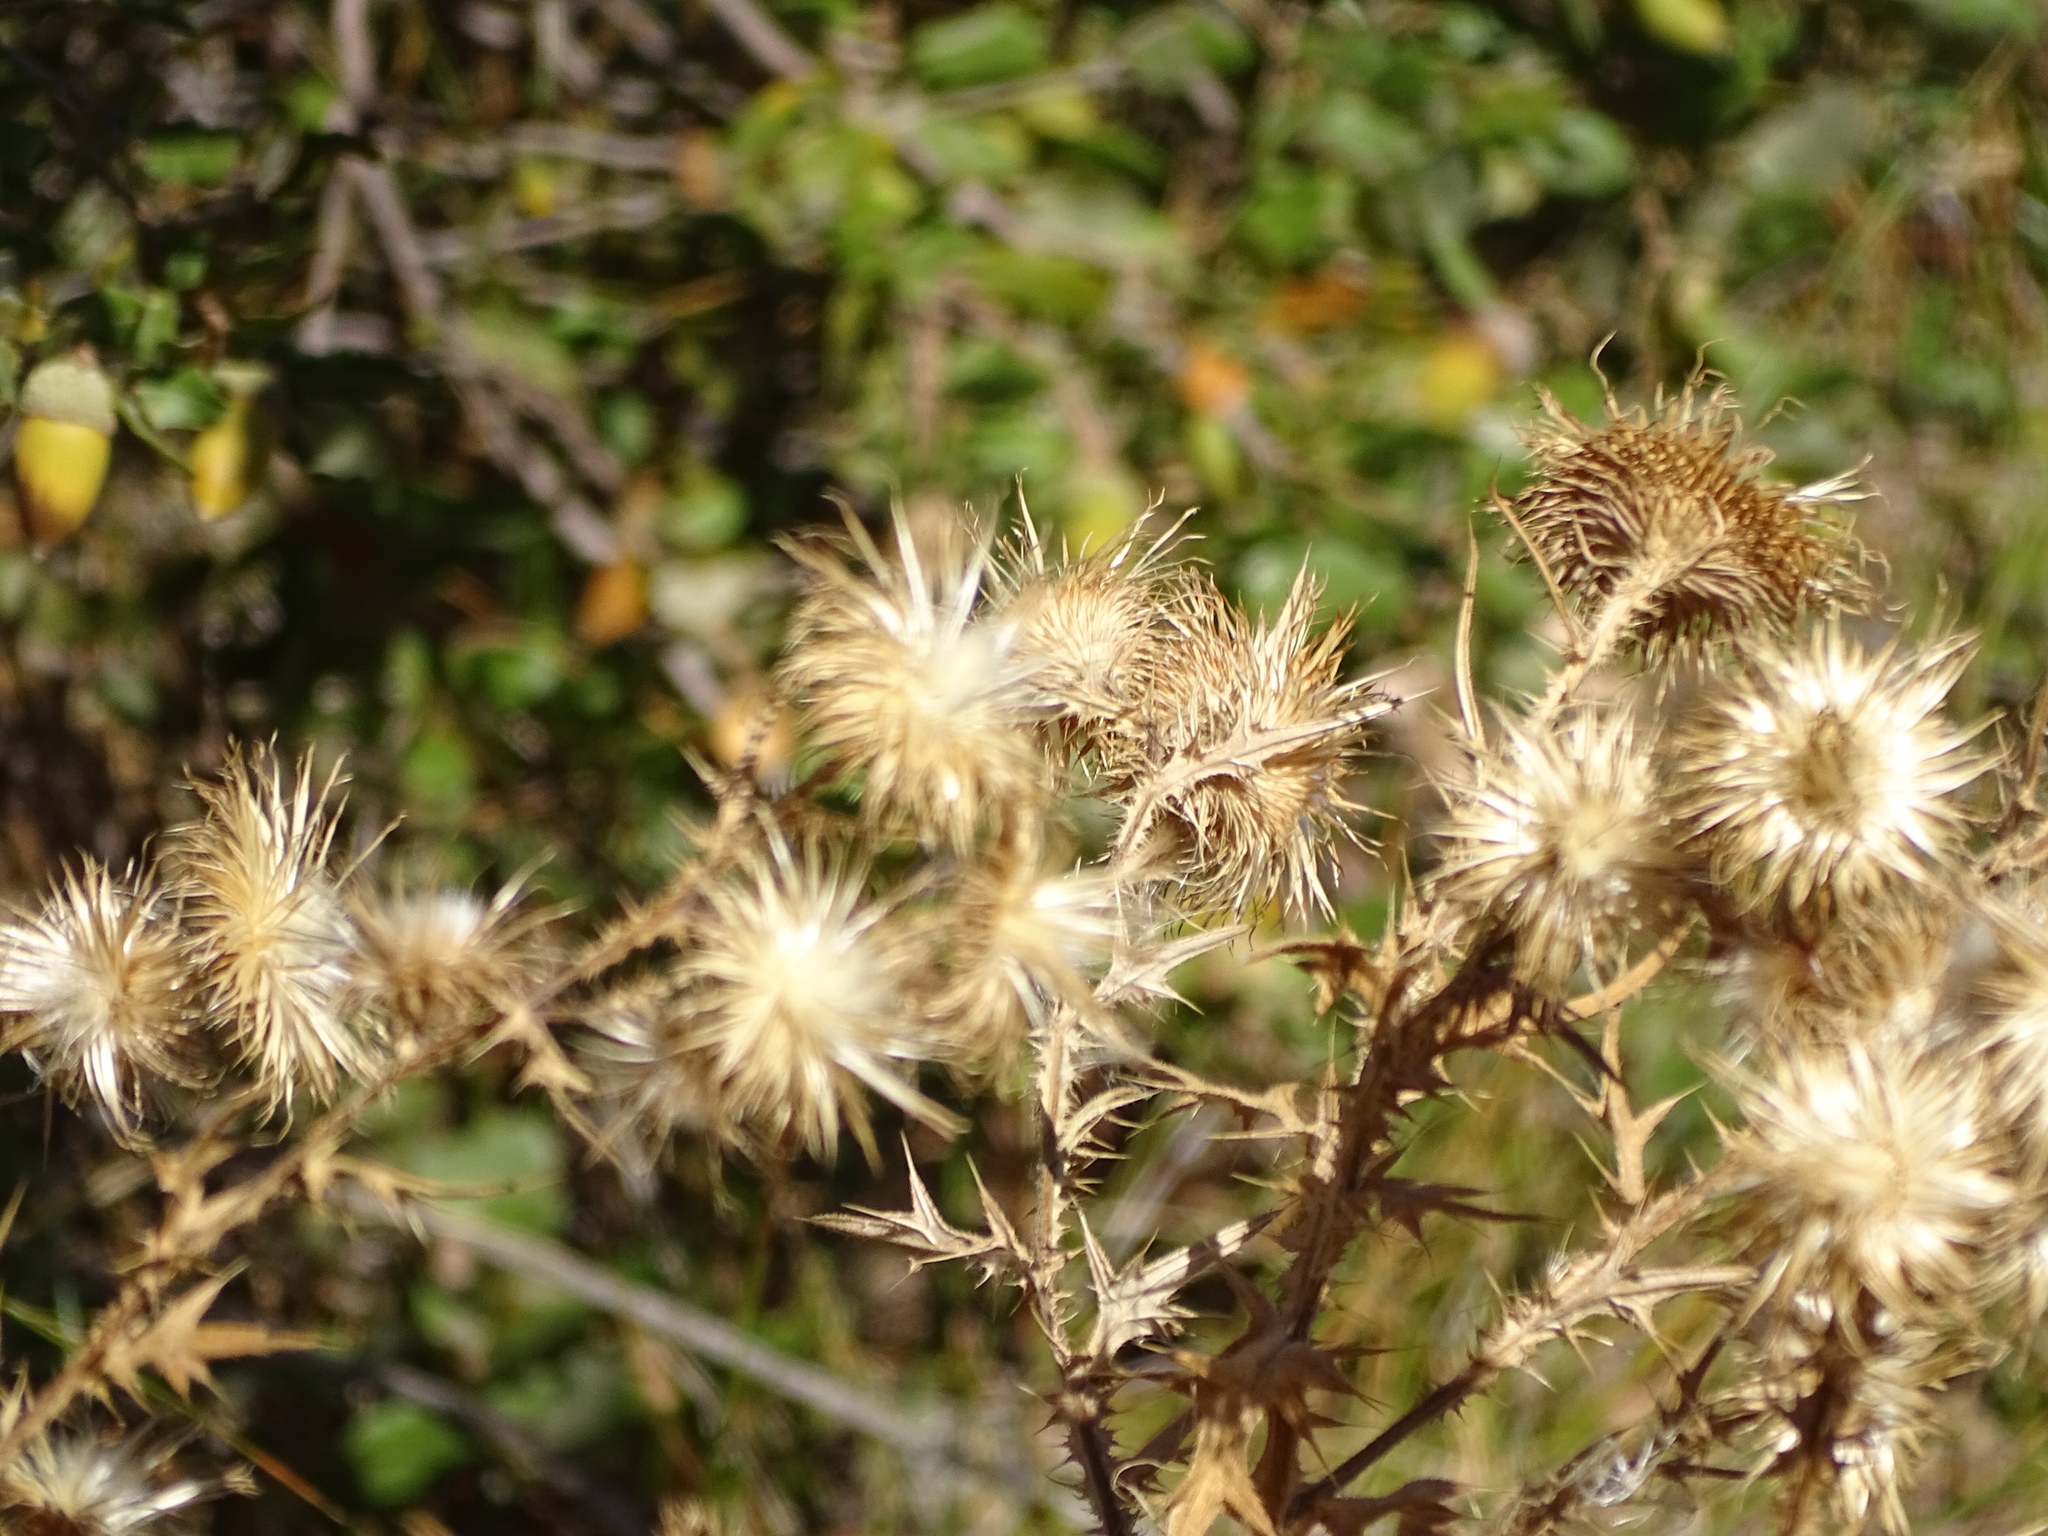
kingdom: Plantae
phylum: Tracheophyta
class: Magnoliopsida
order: Asterales
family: Asteraceae
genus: Cirsium
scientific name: Cirsium vulgare
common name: Bull thistle
